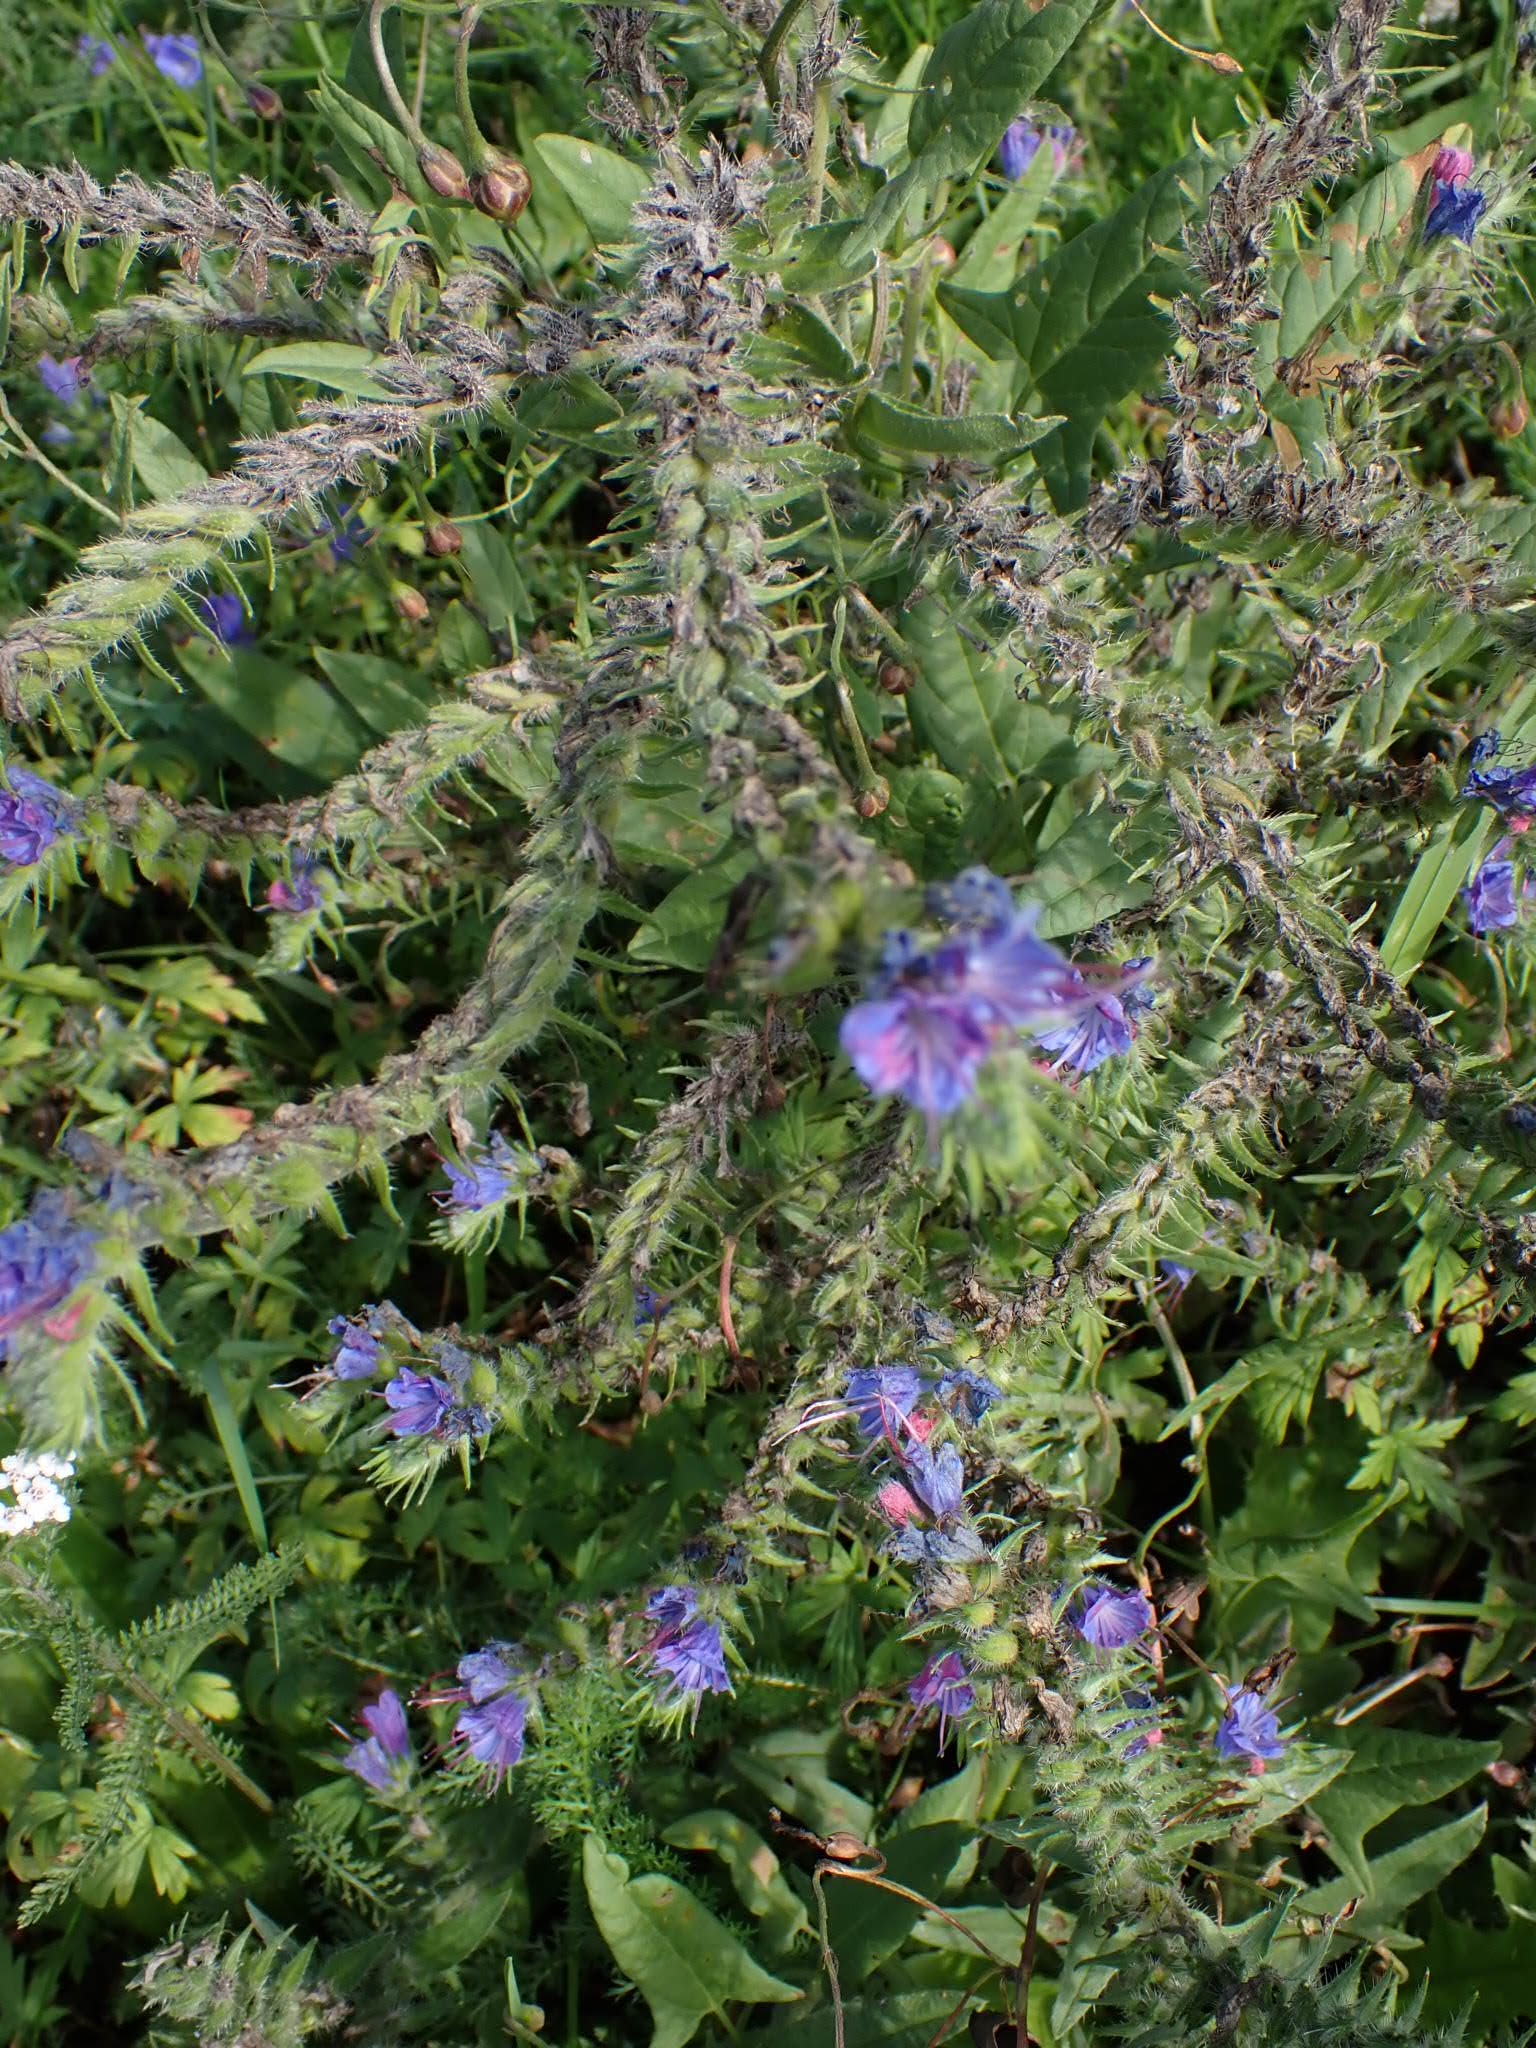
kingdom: Plantae
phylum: Tracheophyta
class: Magnoliopsida
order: Boraginales
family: Boraginaceae
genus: Echium
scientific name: Echium vulgare
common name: Common viper's bugloss
